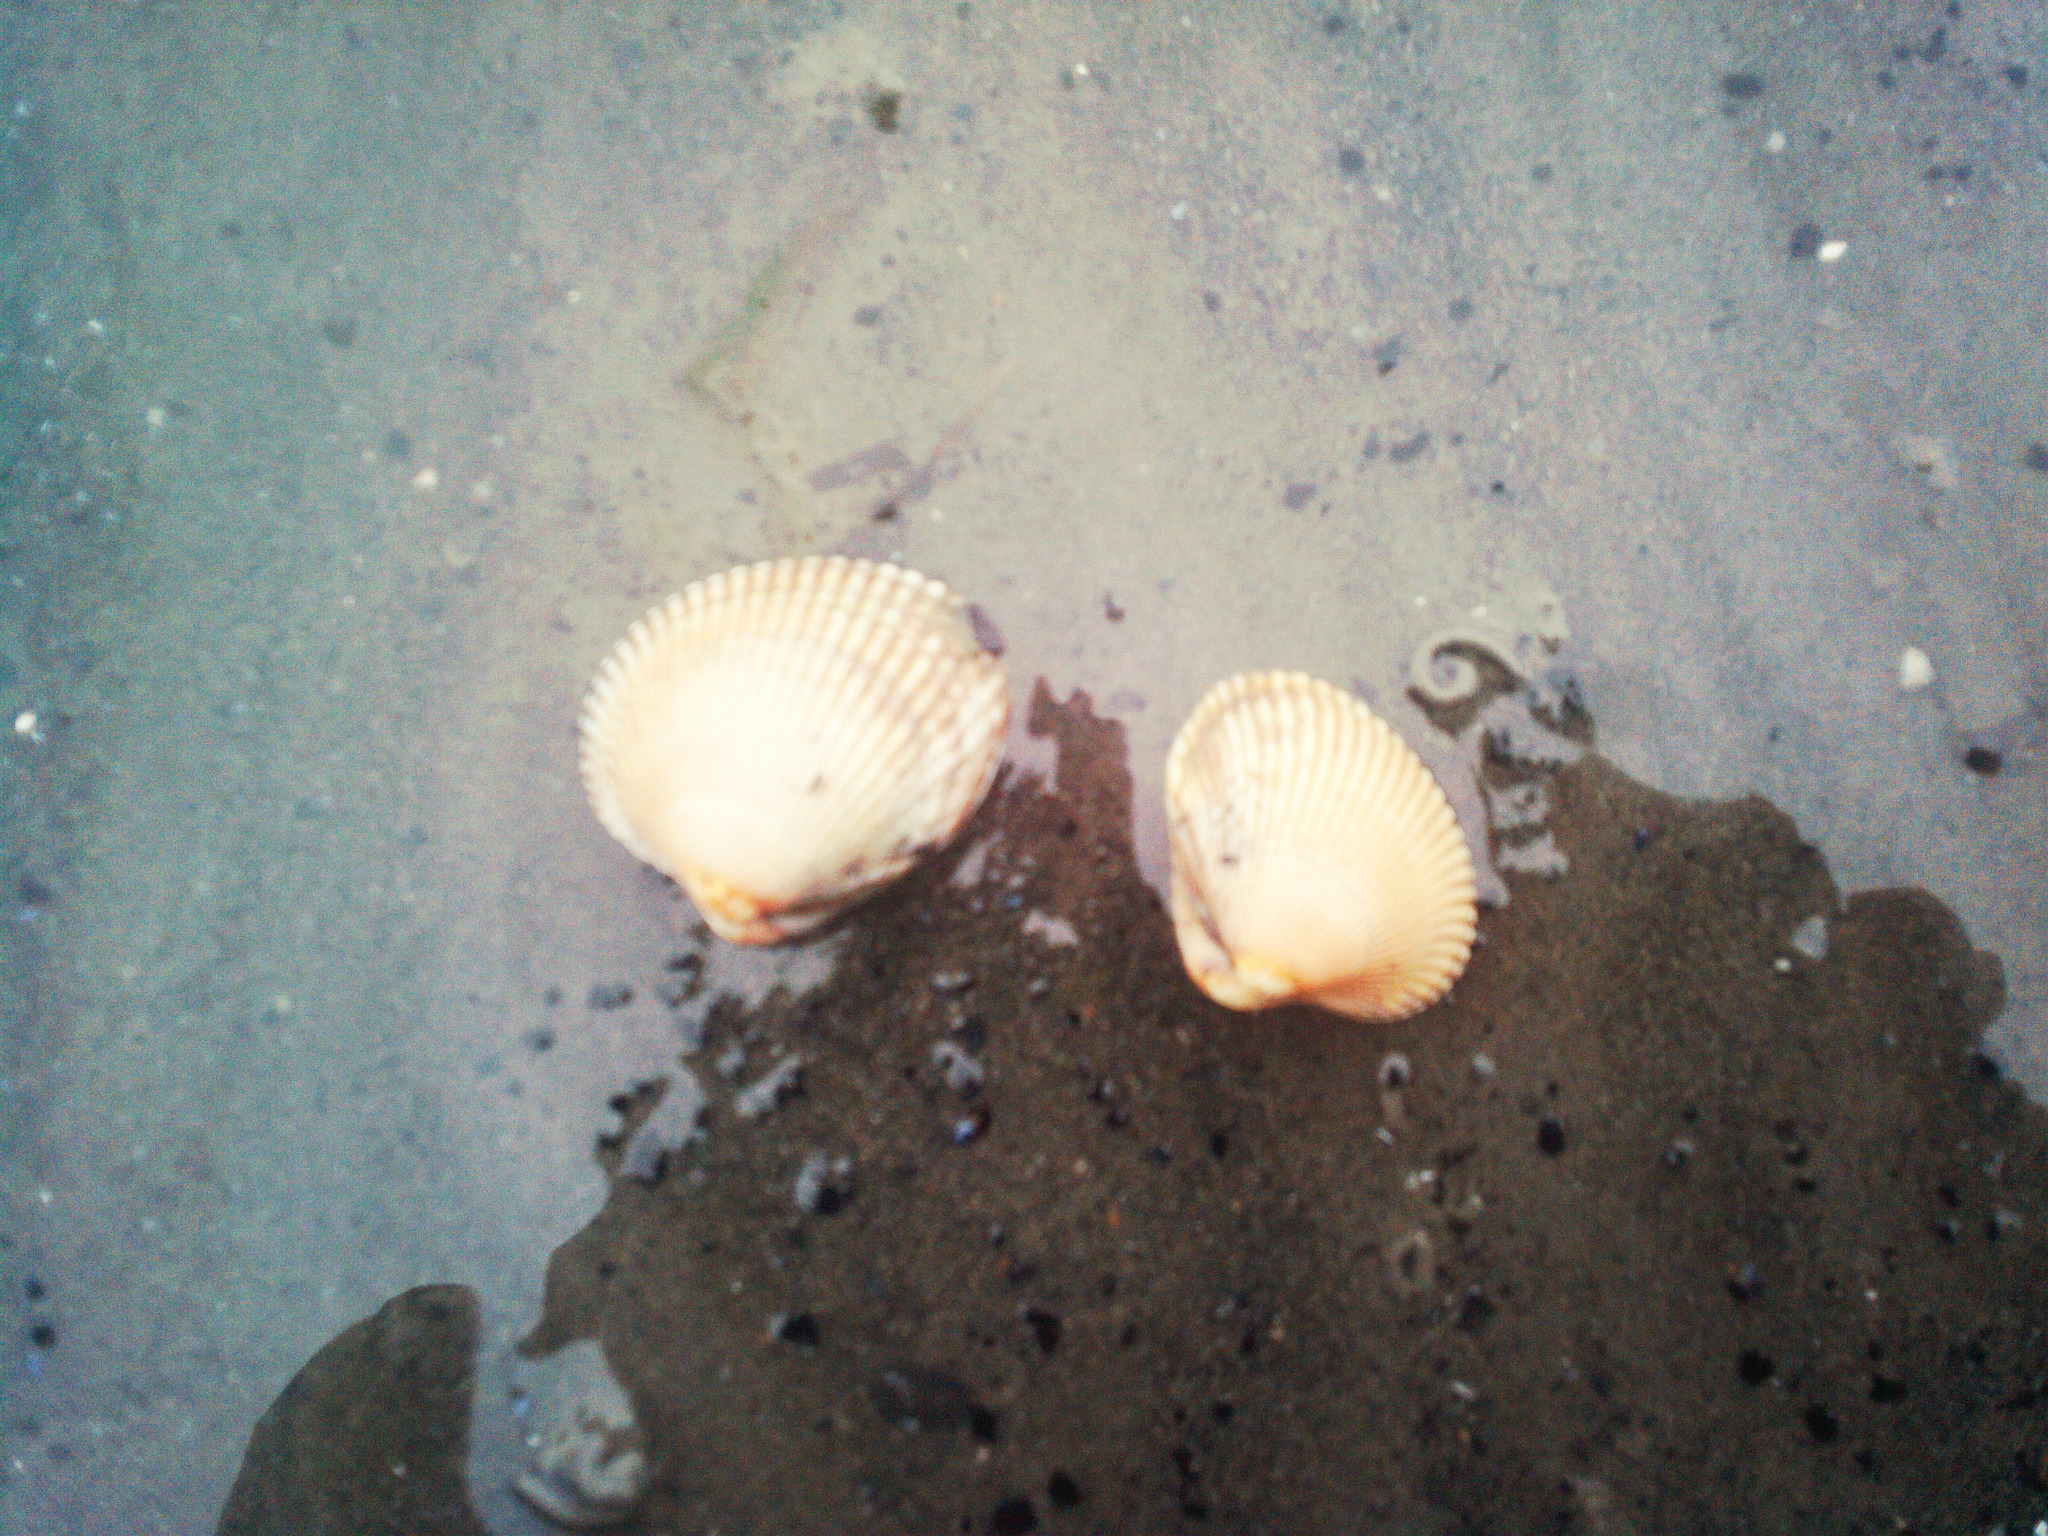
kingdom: Animalia
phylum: Mollusca
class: Bivalvia
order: Cardiida
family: Cardiidae
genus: Clinocardium
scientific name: Clinocardium nuttallii
